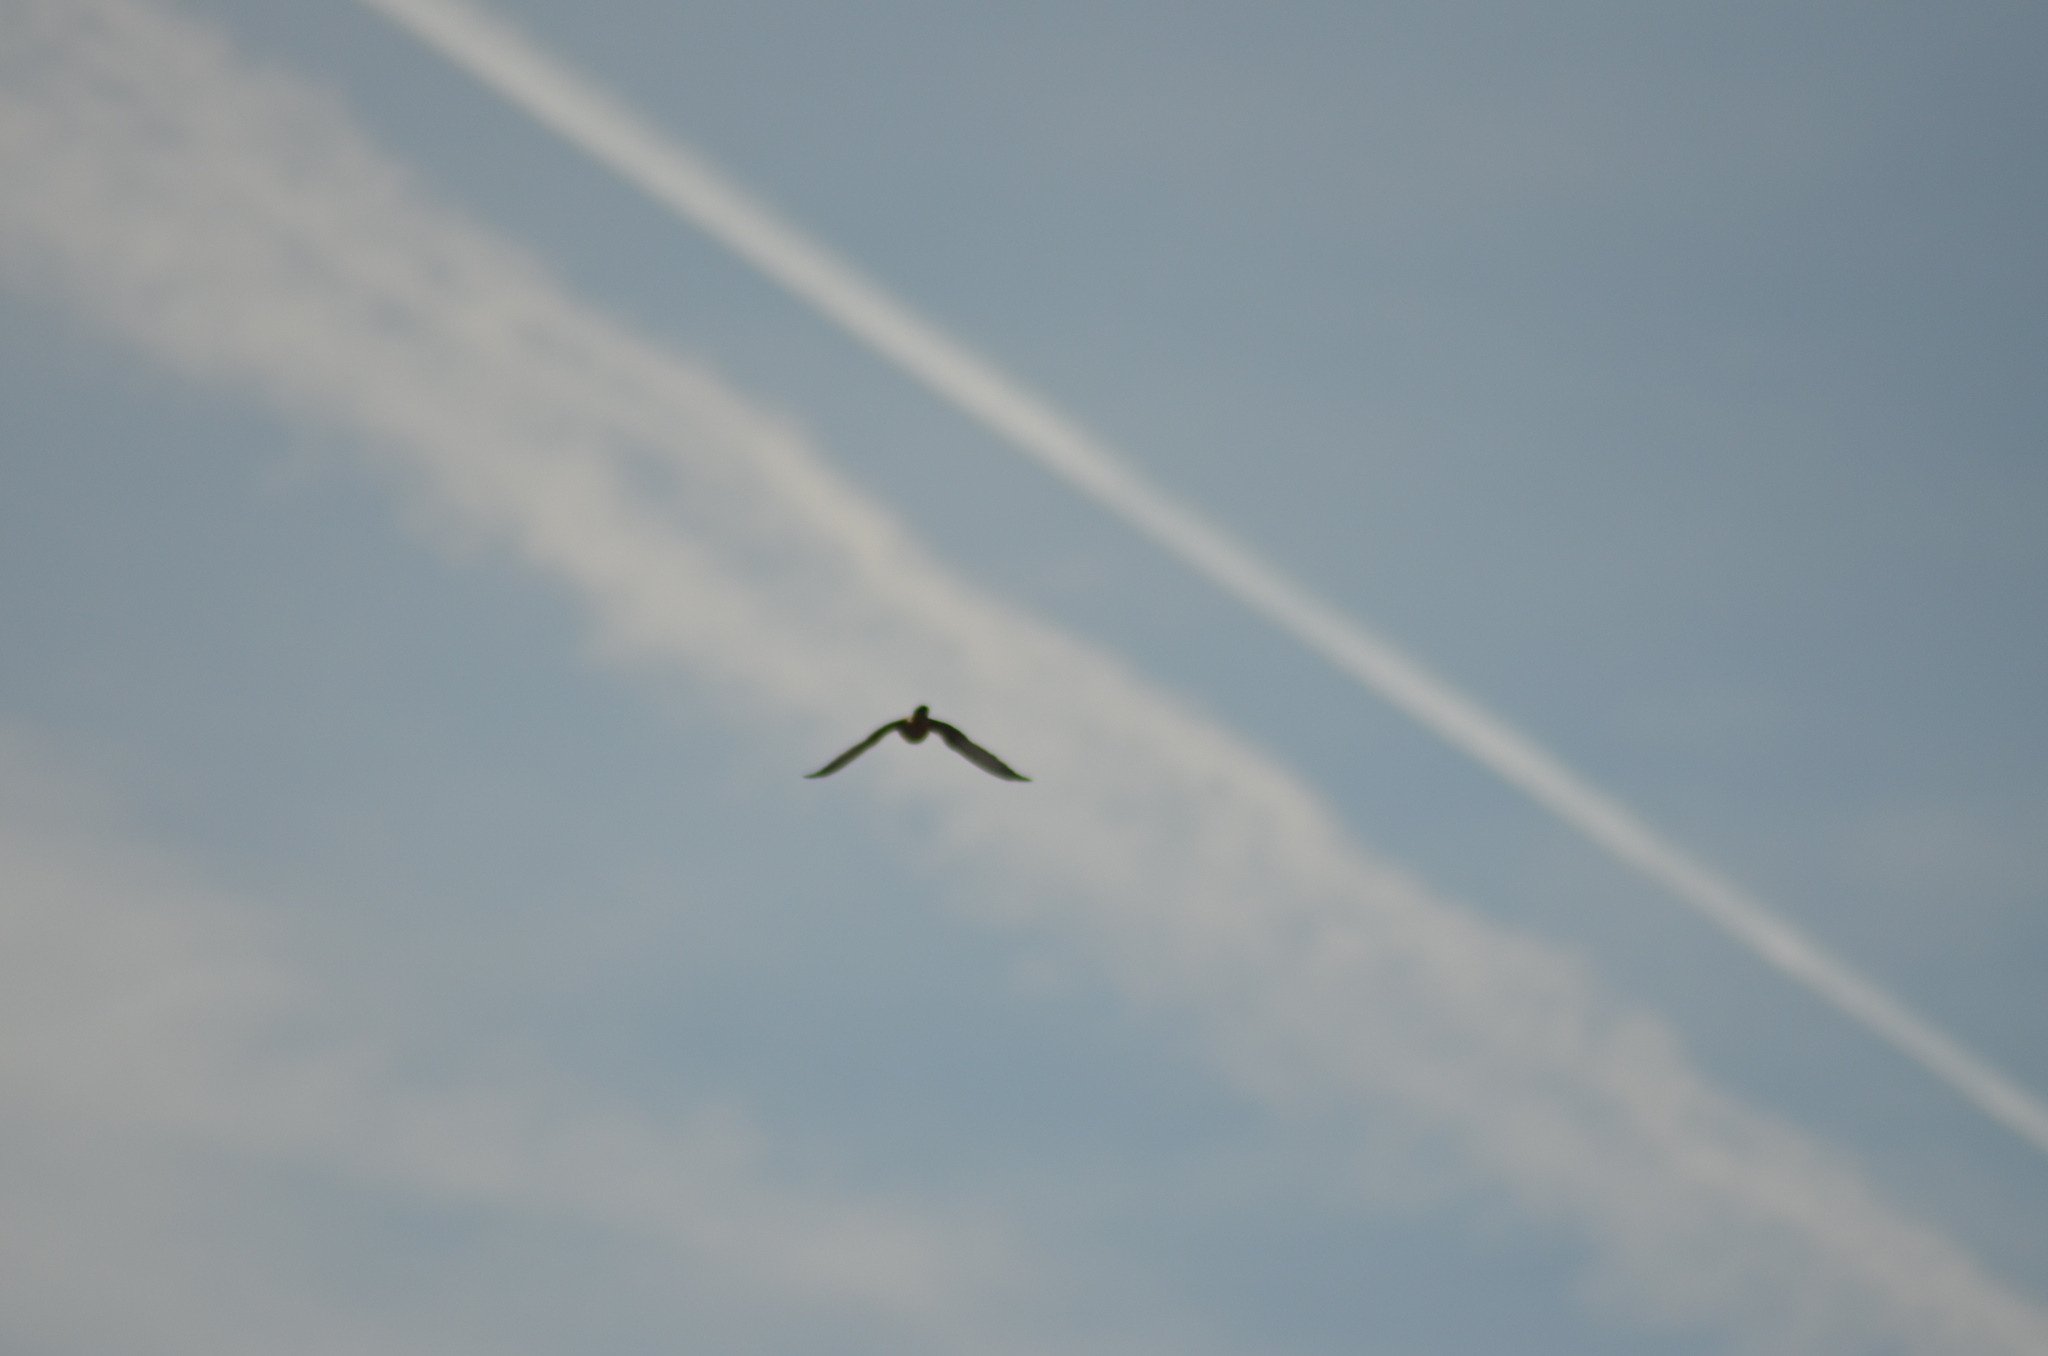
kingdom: Animalia
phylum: Chordata
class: Aves
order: Falconiformes
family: Falconidae
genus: Falco
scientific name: Falco tinnunculus
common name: Common kestrel
